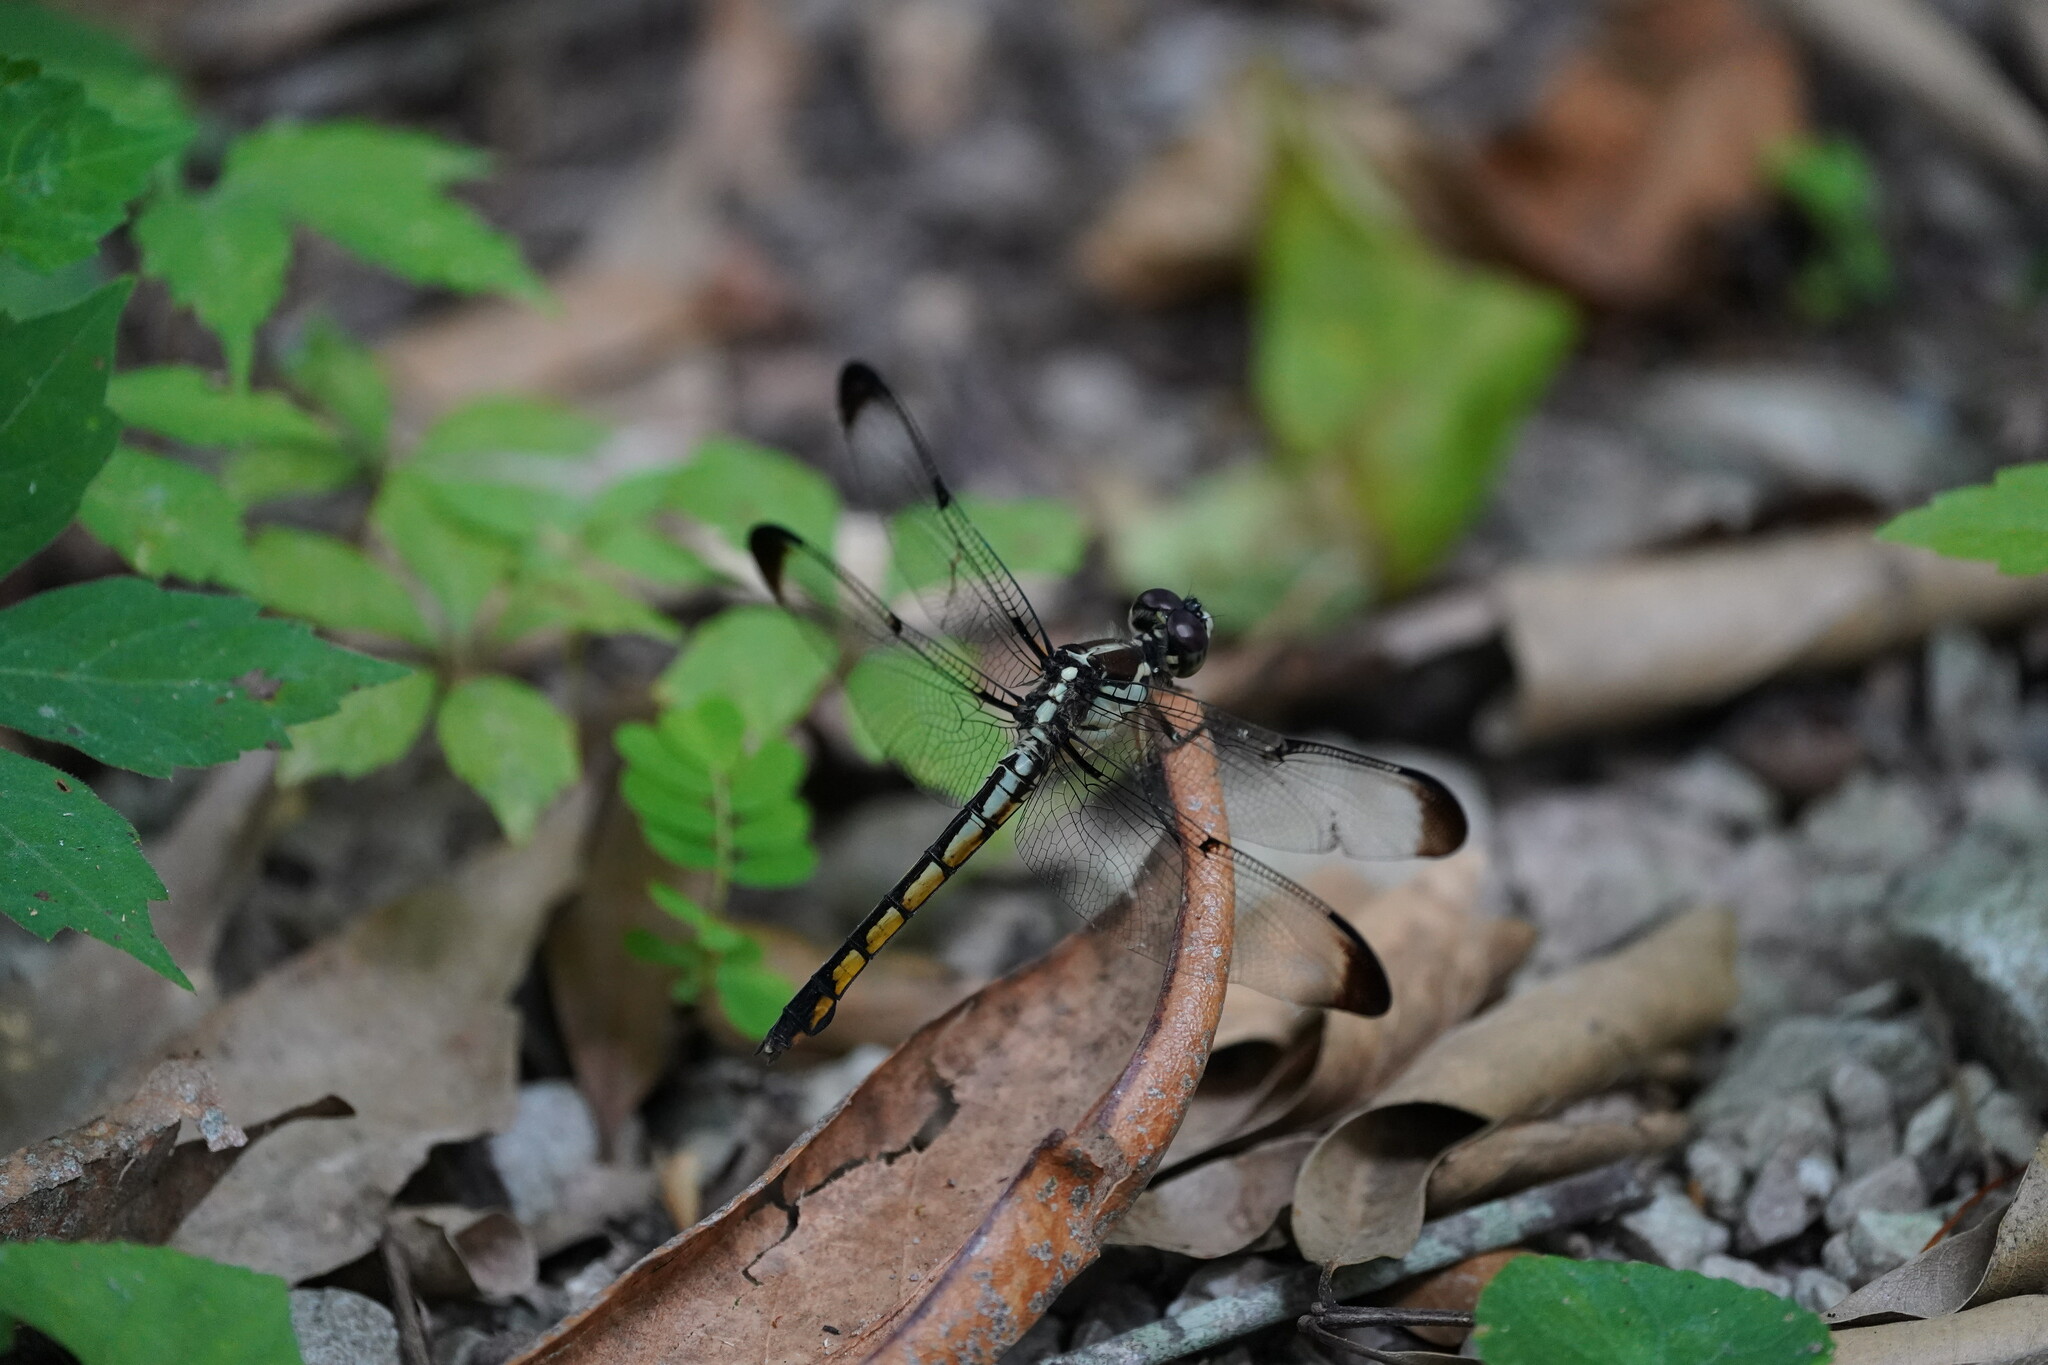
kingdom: Animalia
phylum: Arthropoda
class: Insecta
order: Odonata
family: Libellulidae
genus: Libellula
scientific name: Libellula vibrans
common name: Great blue skimmer
